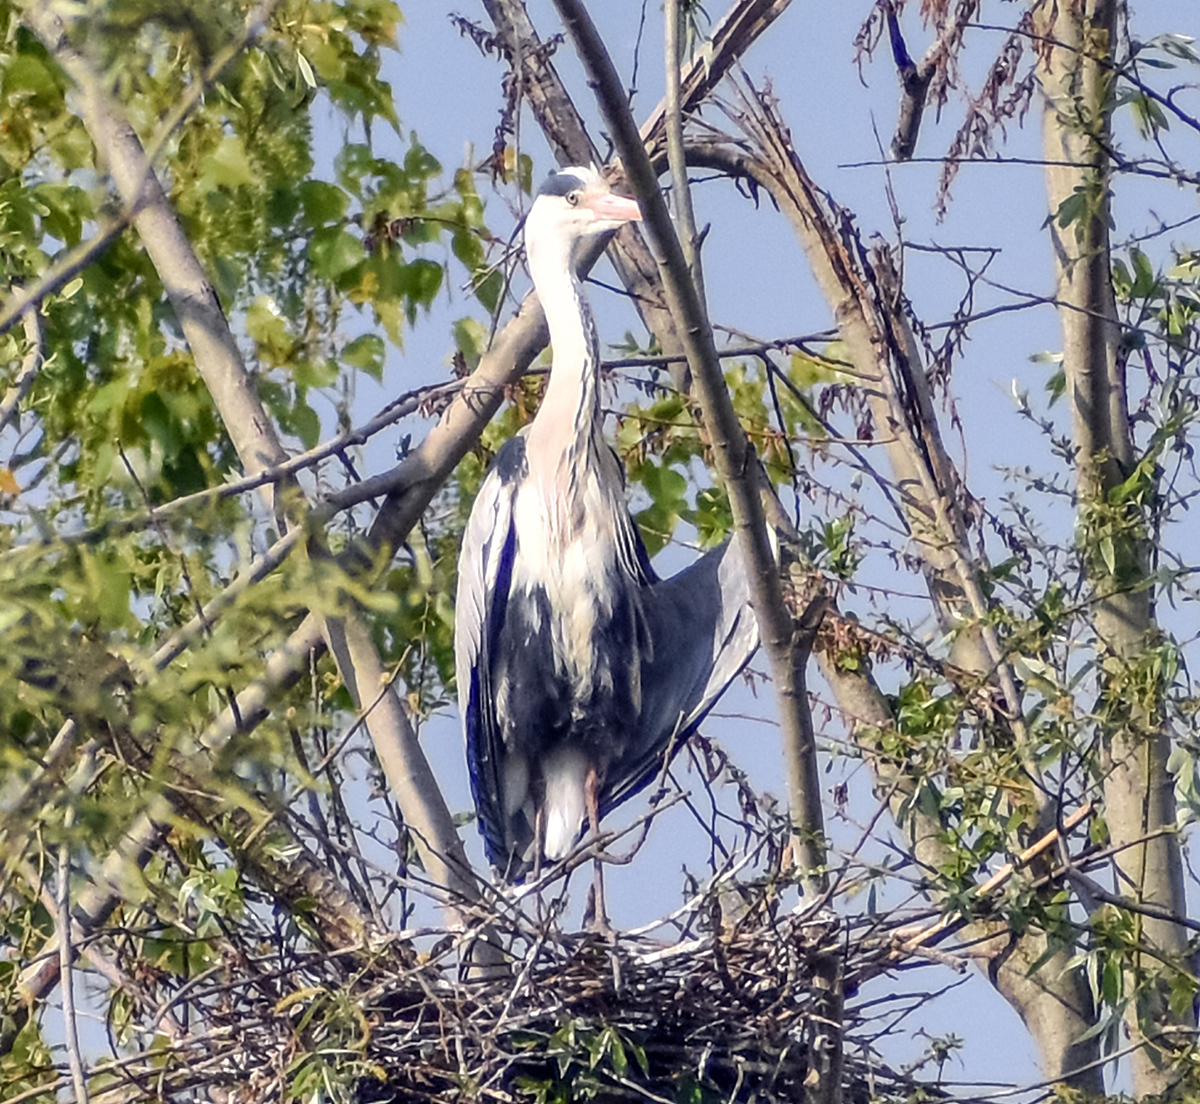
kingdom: Animalia
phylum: Chordata
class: Aves
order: Pelecaniformes
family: Ardeidae
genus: Ardea
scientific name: Ardea cinerea
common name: Grey heron
